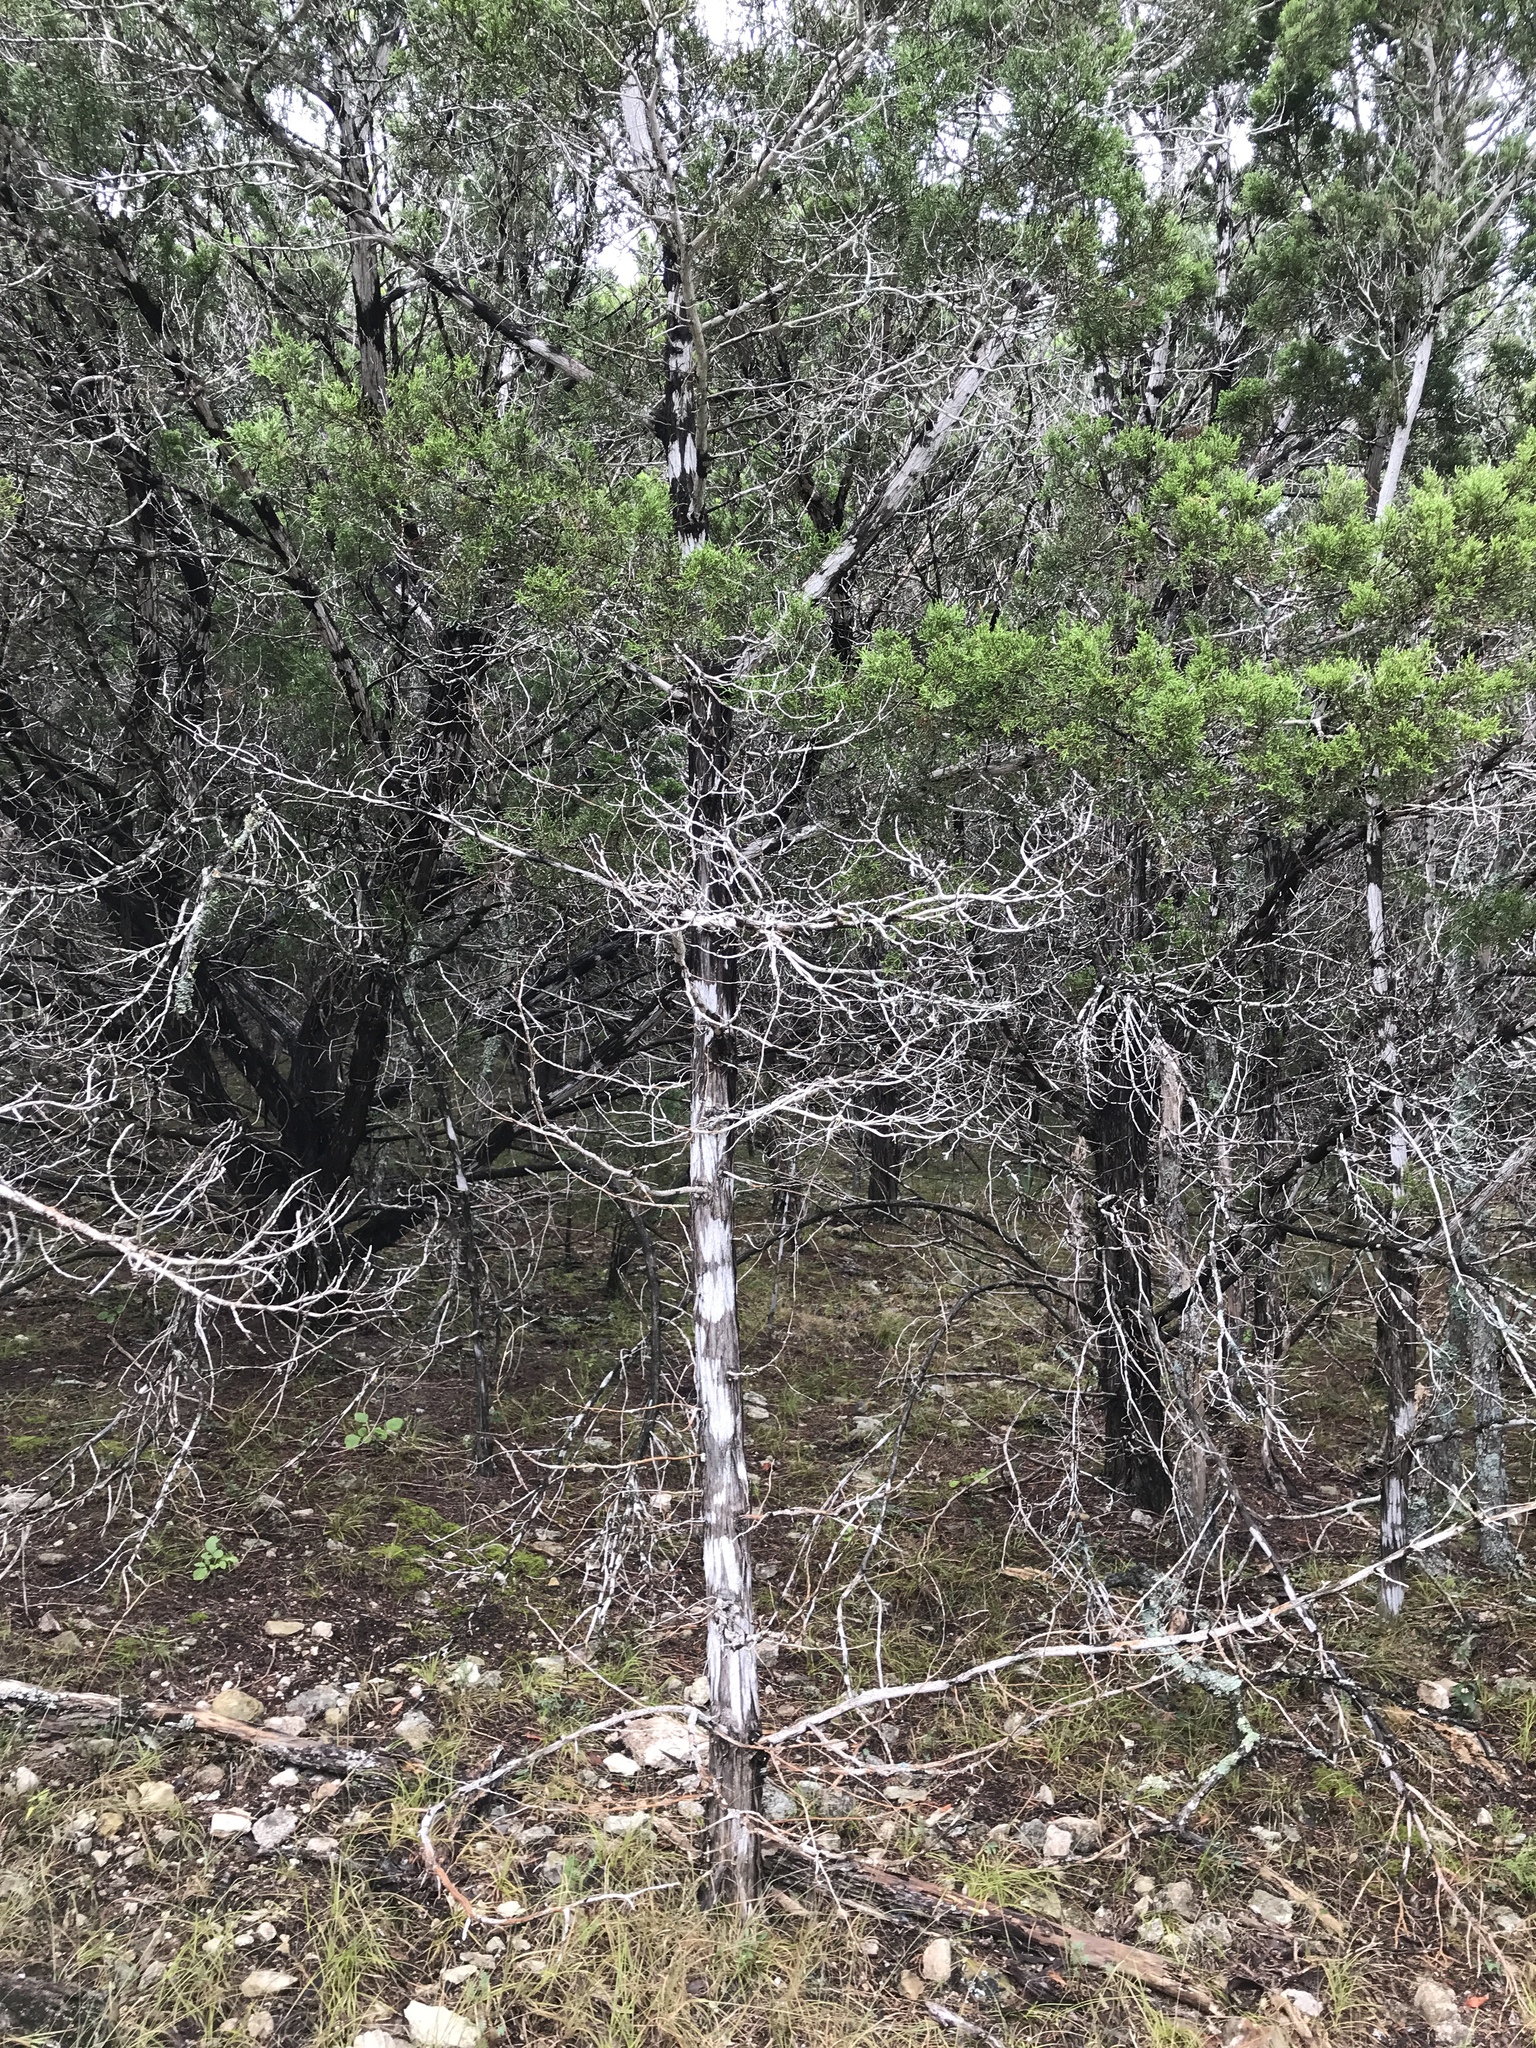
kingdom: Fungi
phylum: Ascomycota
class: Lecanoromycetes
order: Ostropales
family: Stictidaceae
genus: Robergea
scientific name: Robergea
